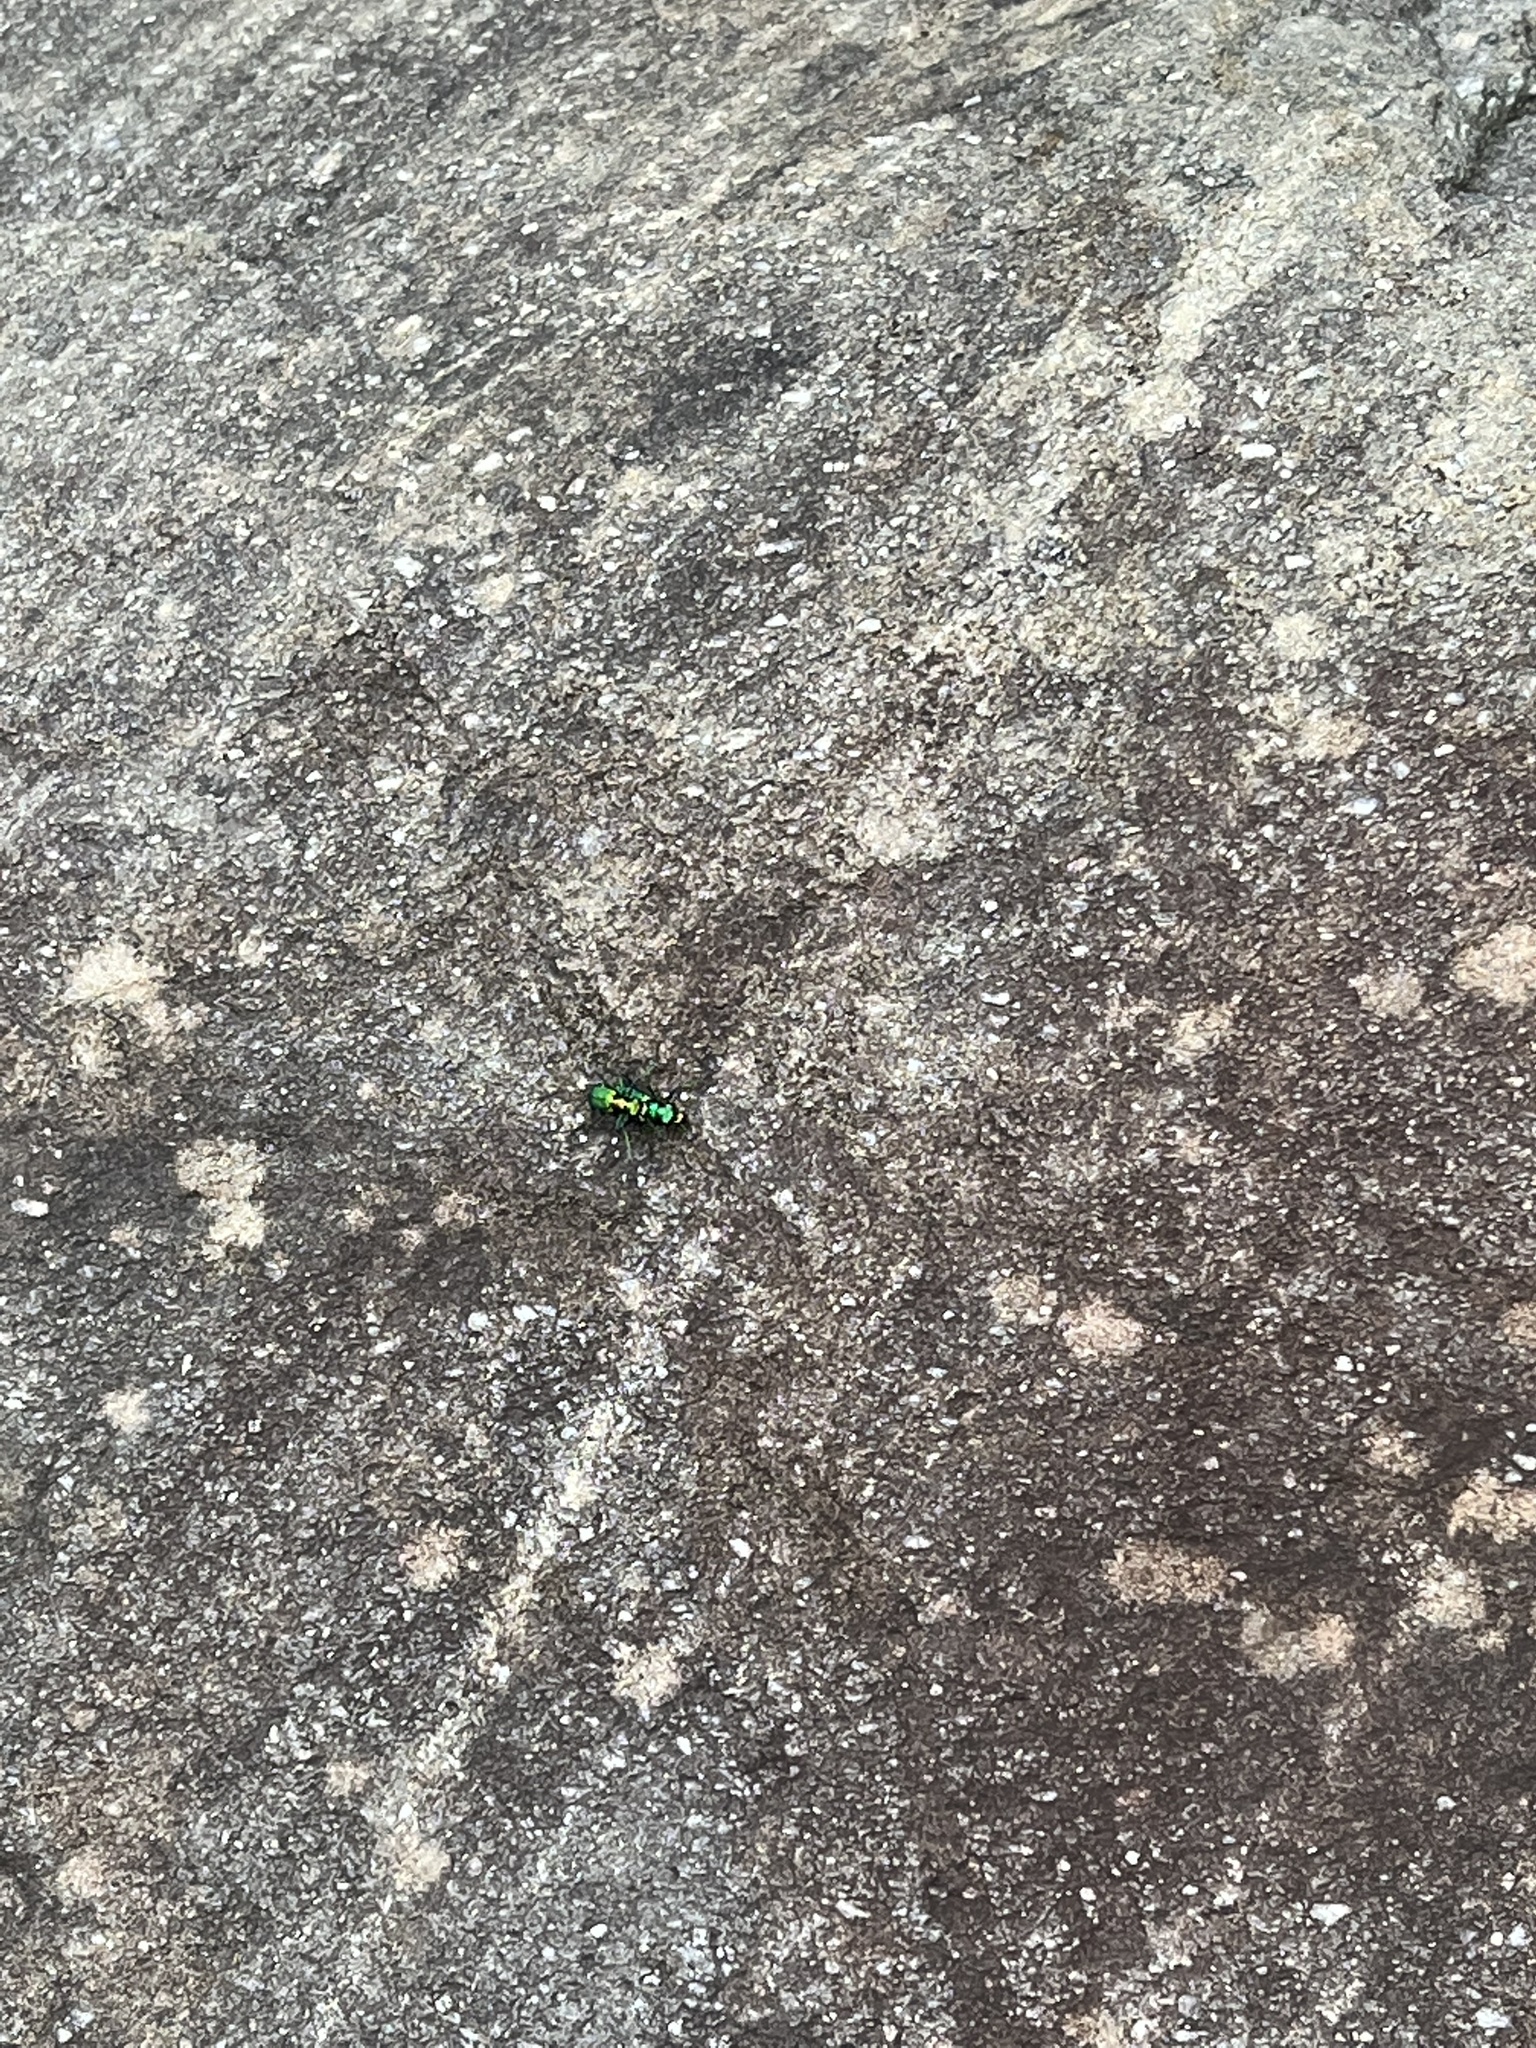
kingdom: Animalia
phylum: Arthropoda
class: Insecta
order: Coleoptera
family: Carabidae
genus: Cicindela
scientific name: Cicindela sexguttata
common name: Six-spotted tiger beetle
